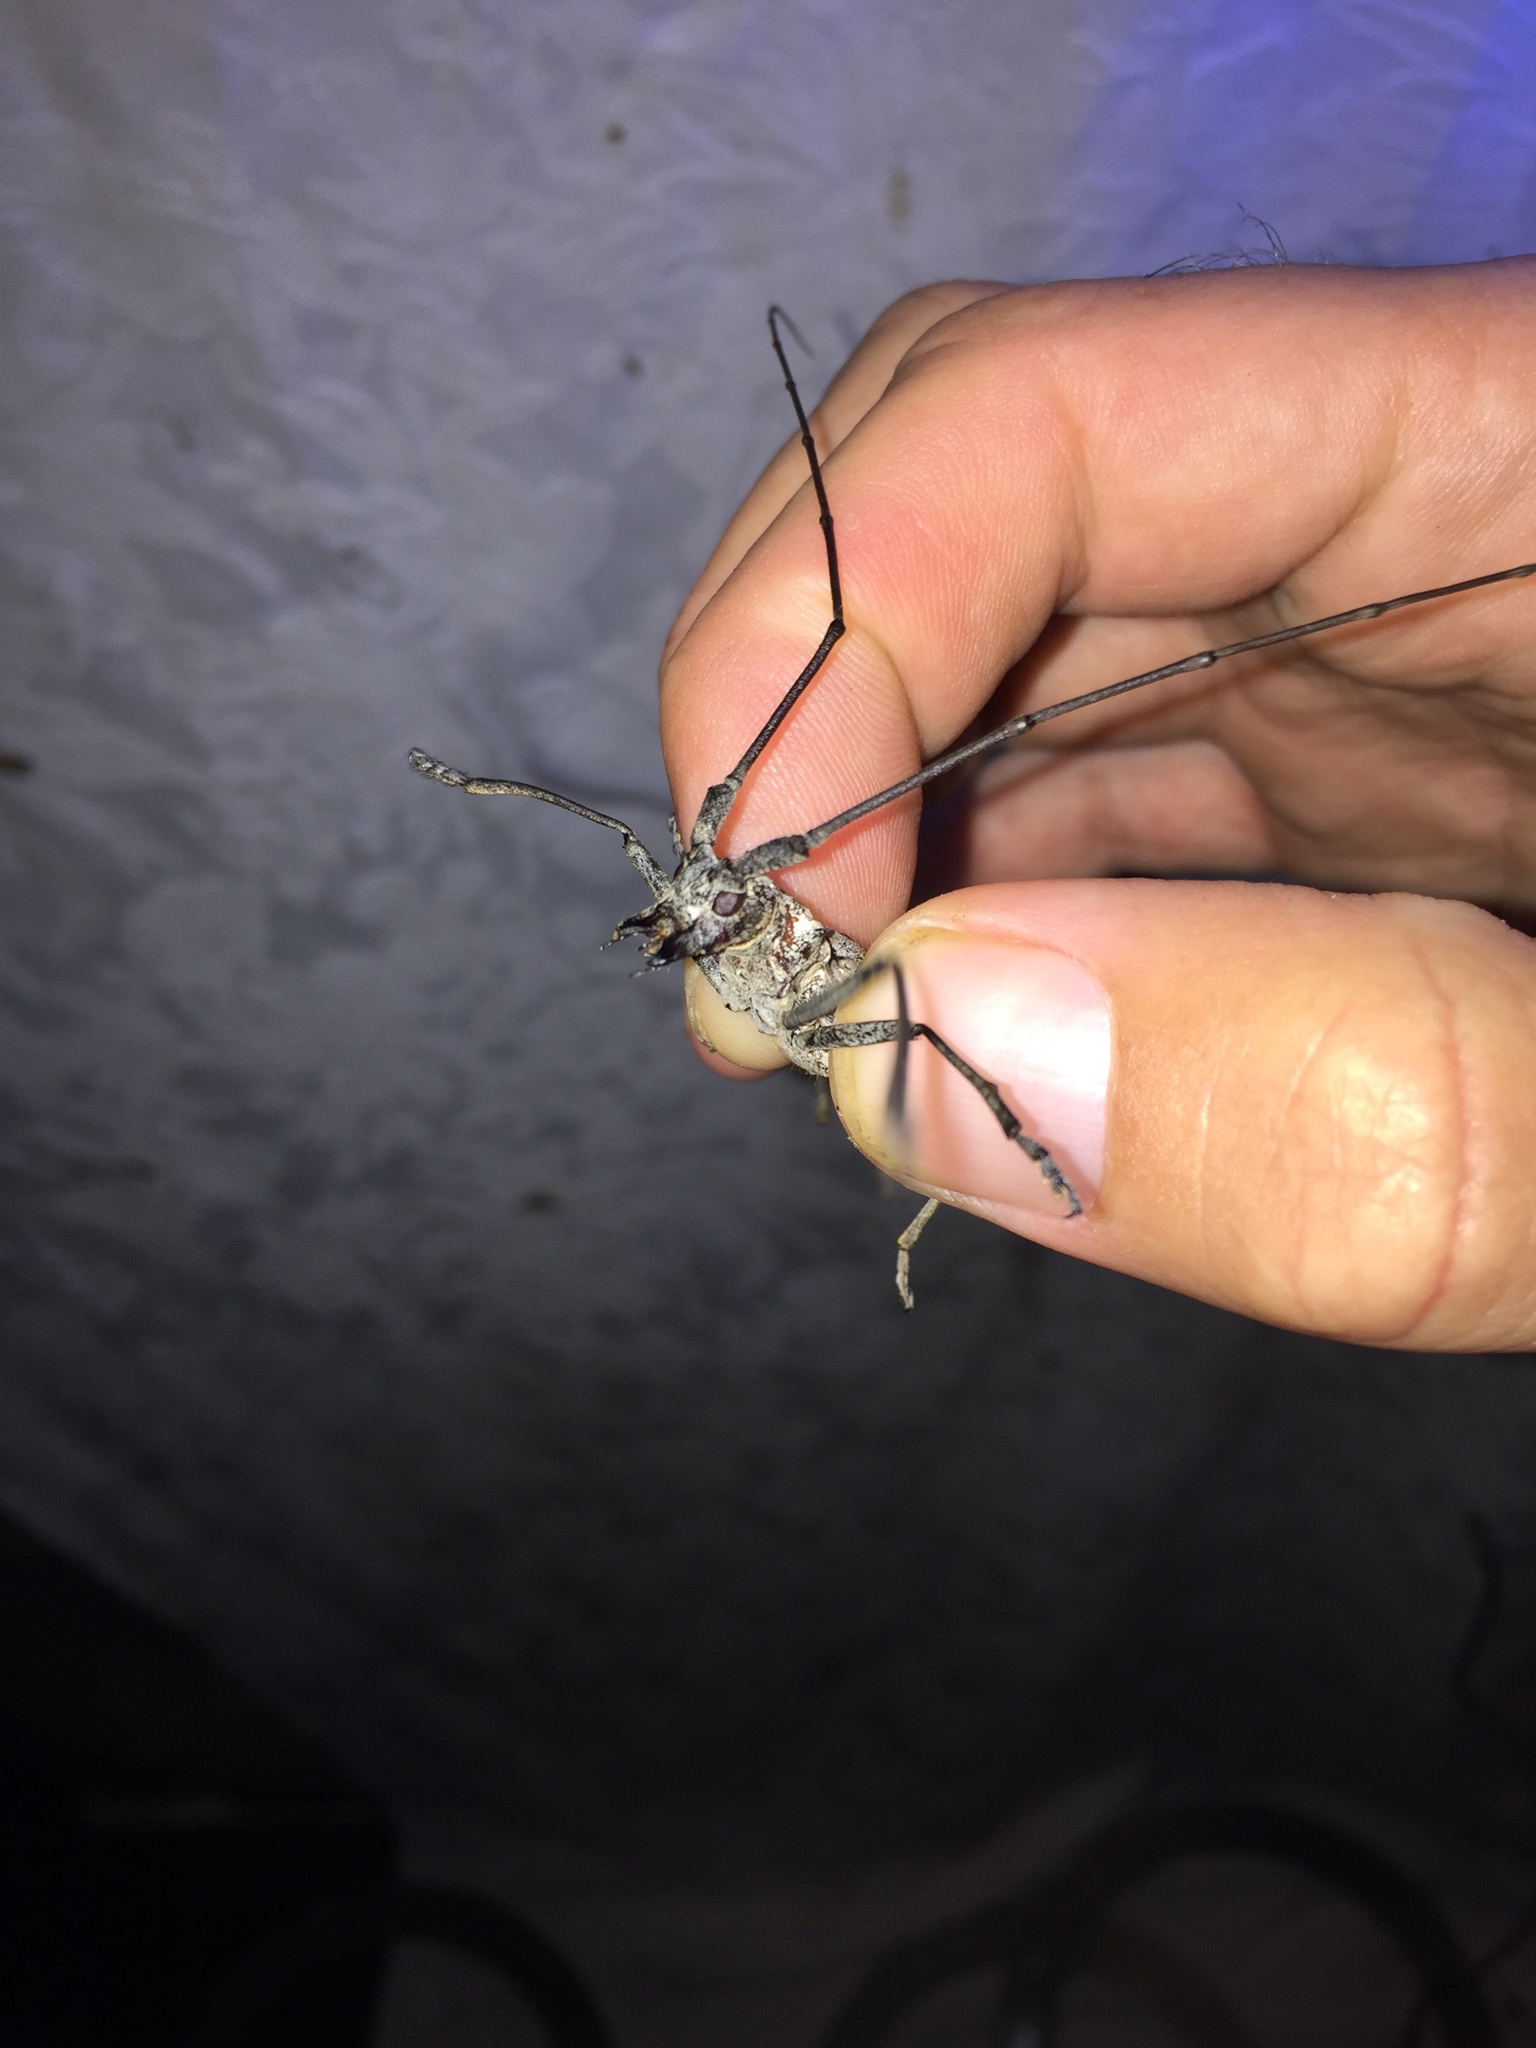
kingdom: Animalia
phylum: Arthropoda
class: Insecta
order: Coleoptera
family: Cerambycidae
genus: Monochamus
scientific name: Monochamus notatus
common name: Northeastern pine sawyer beetle
